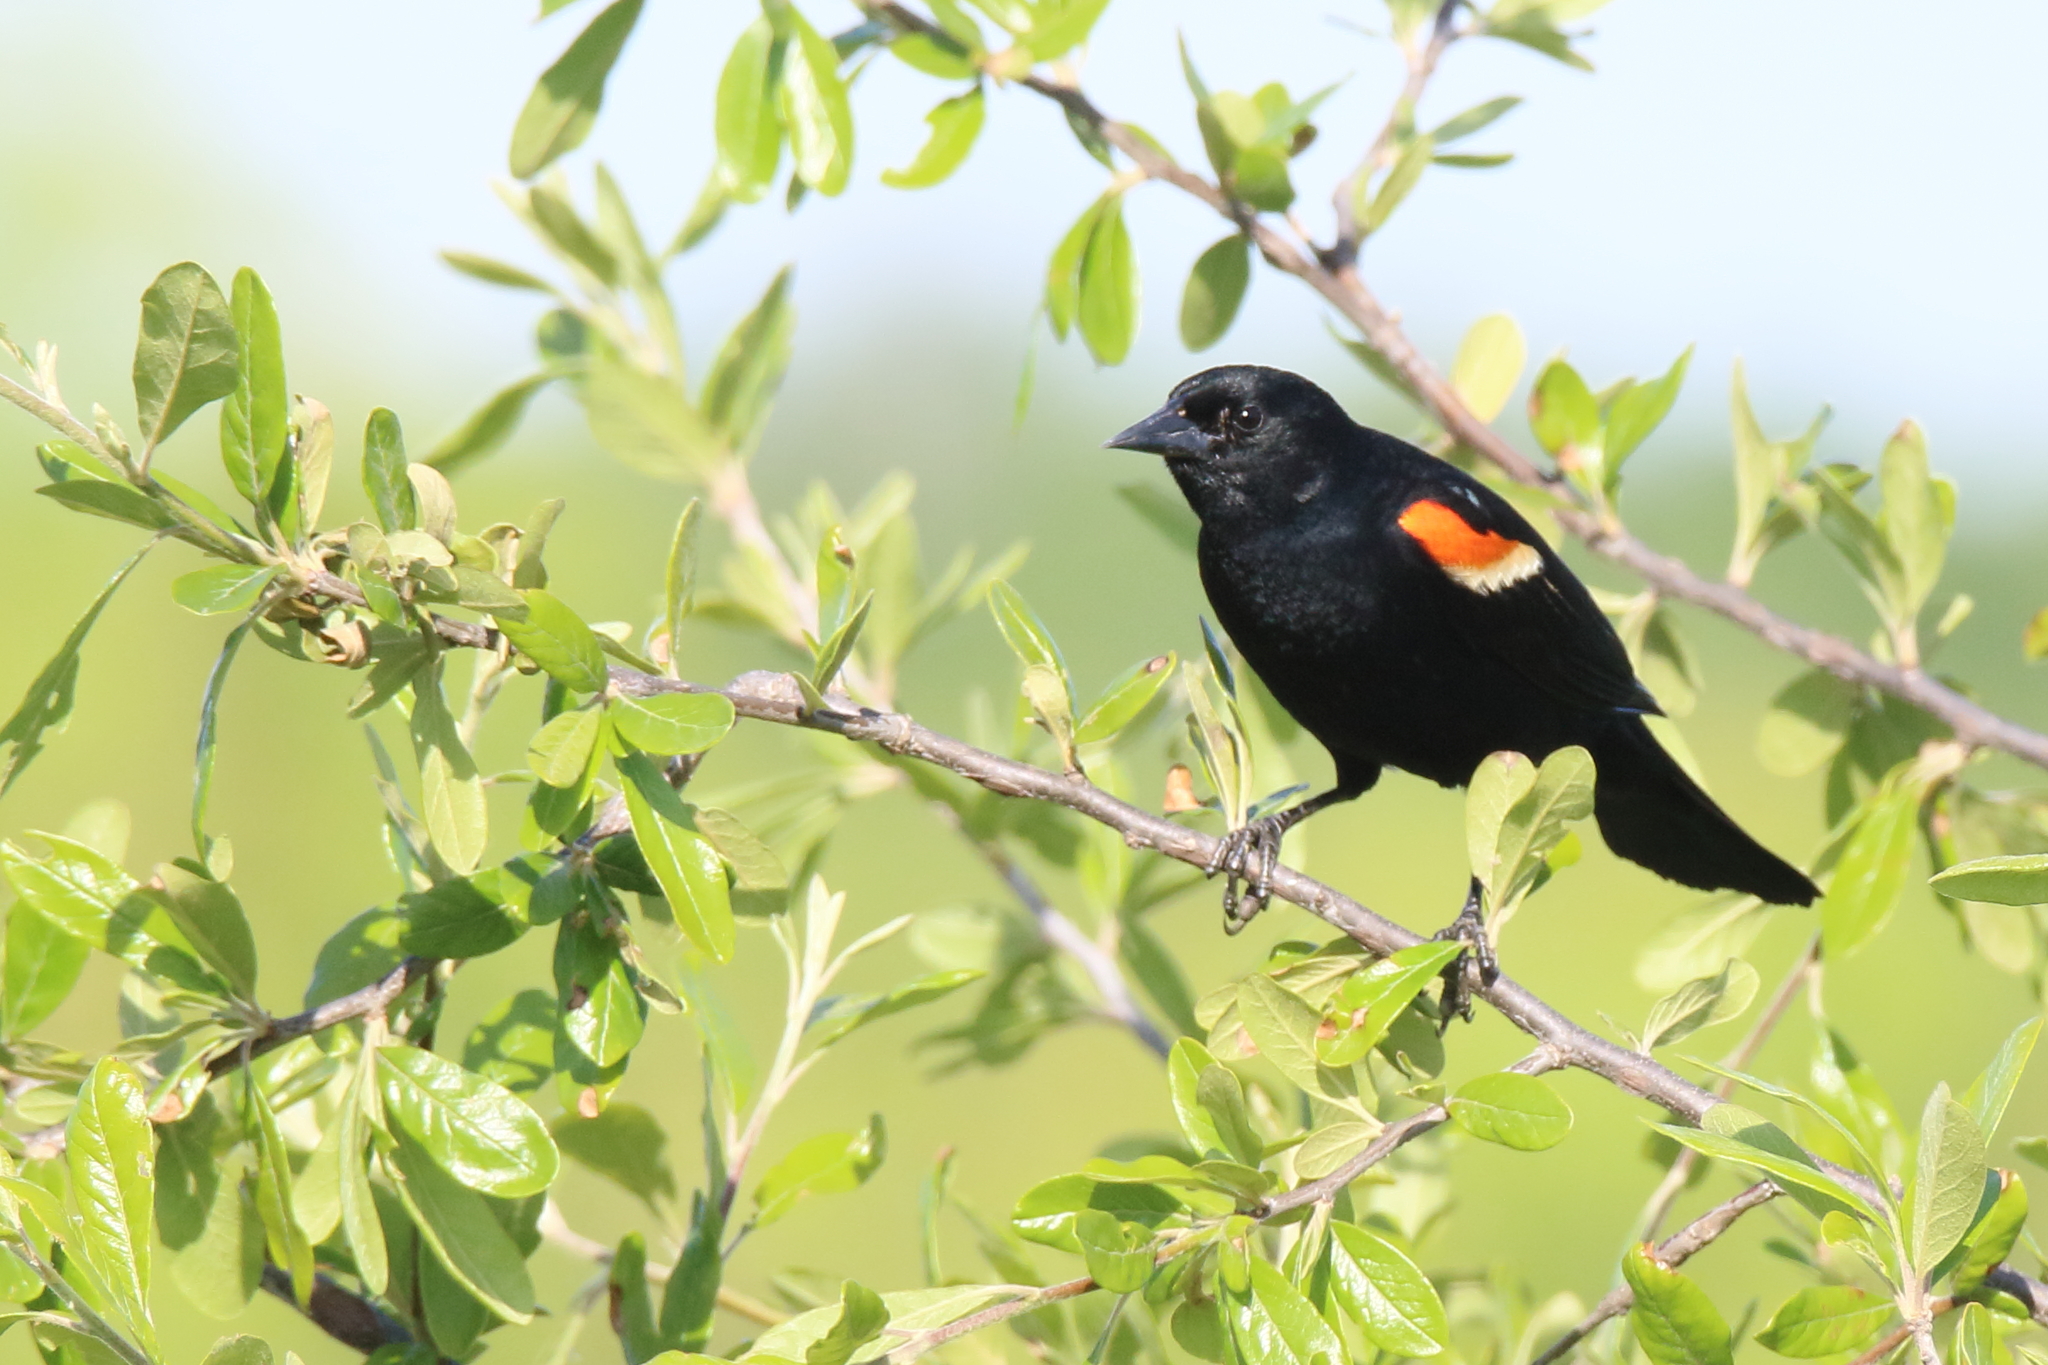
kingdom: Animalia
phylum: Chordata
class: Aves
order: Passeriformes
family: Icteridae
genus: Agelaius
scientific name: Agelaius phoeniceus
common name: Red-winged blackbird
